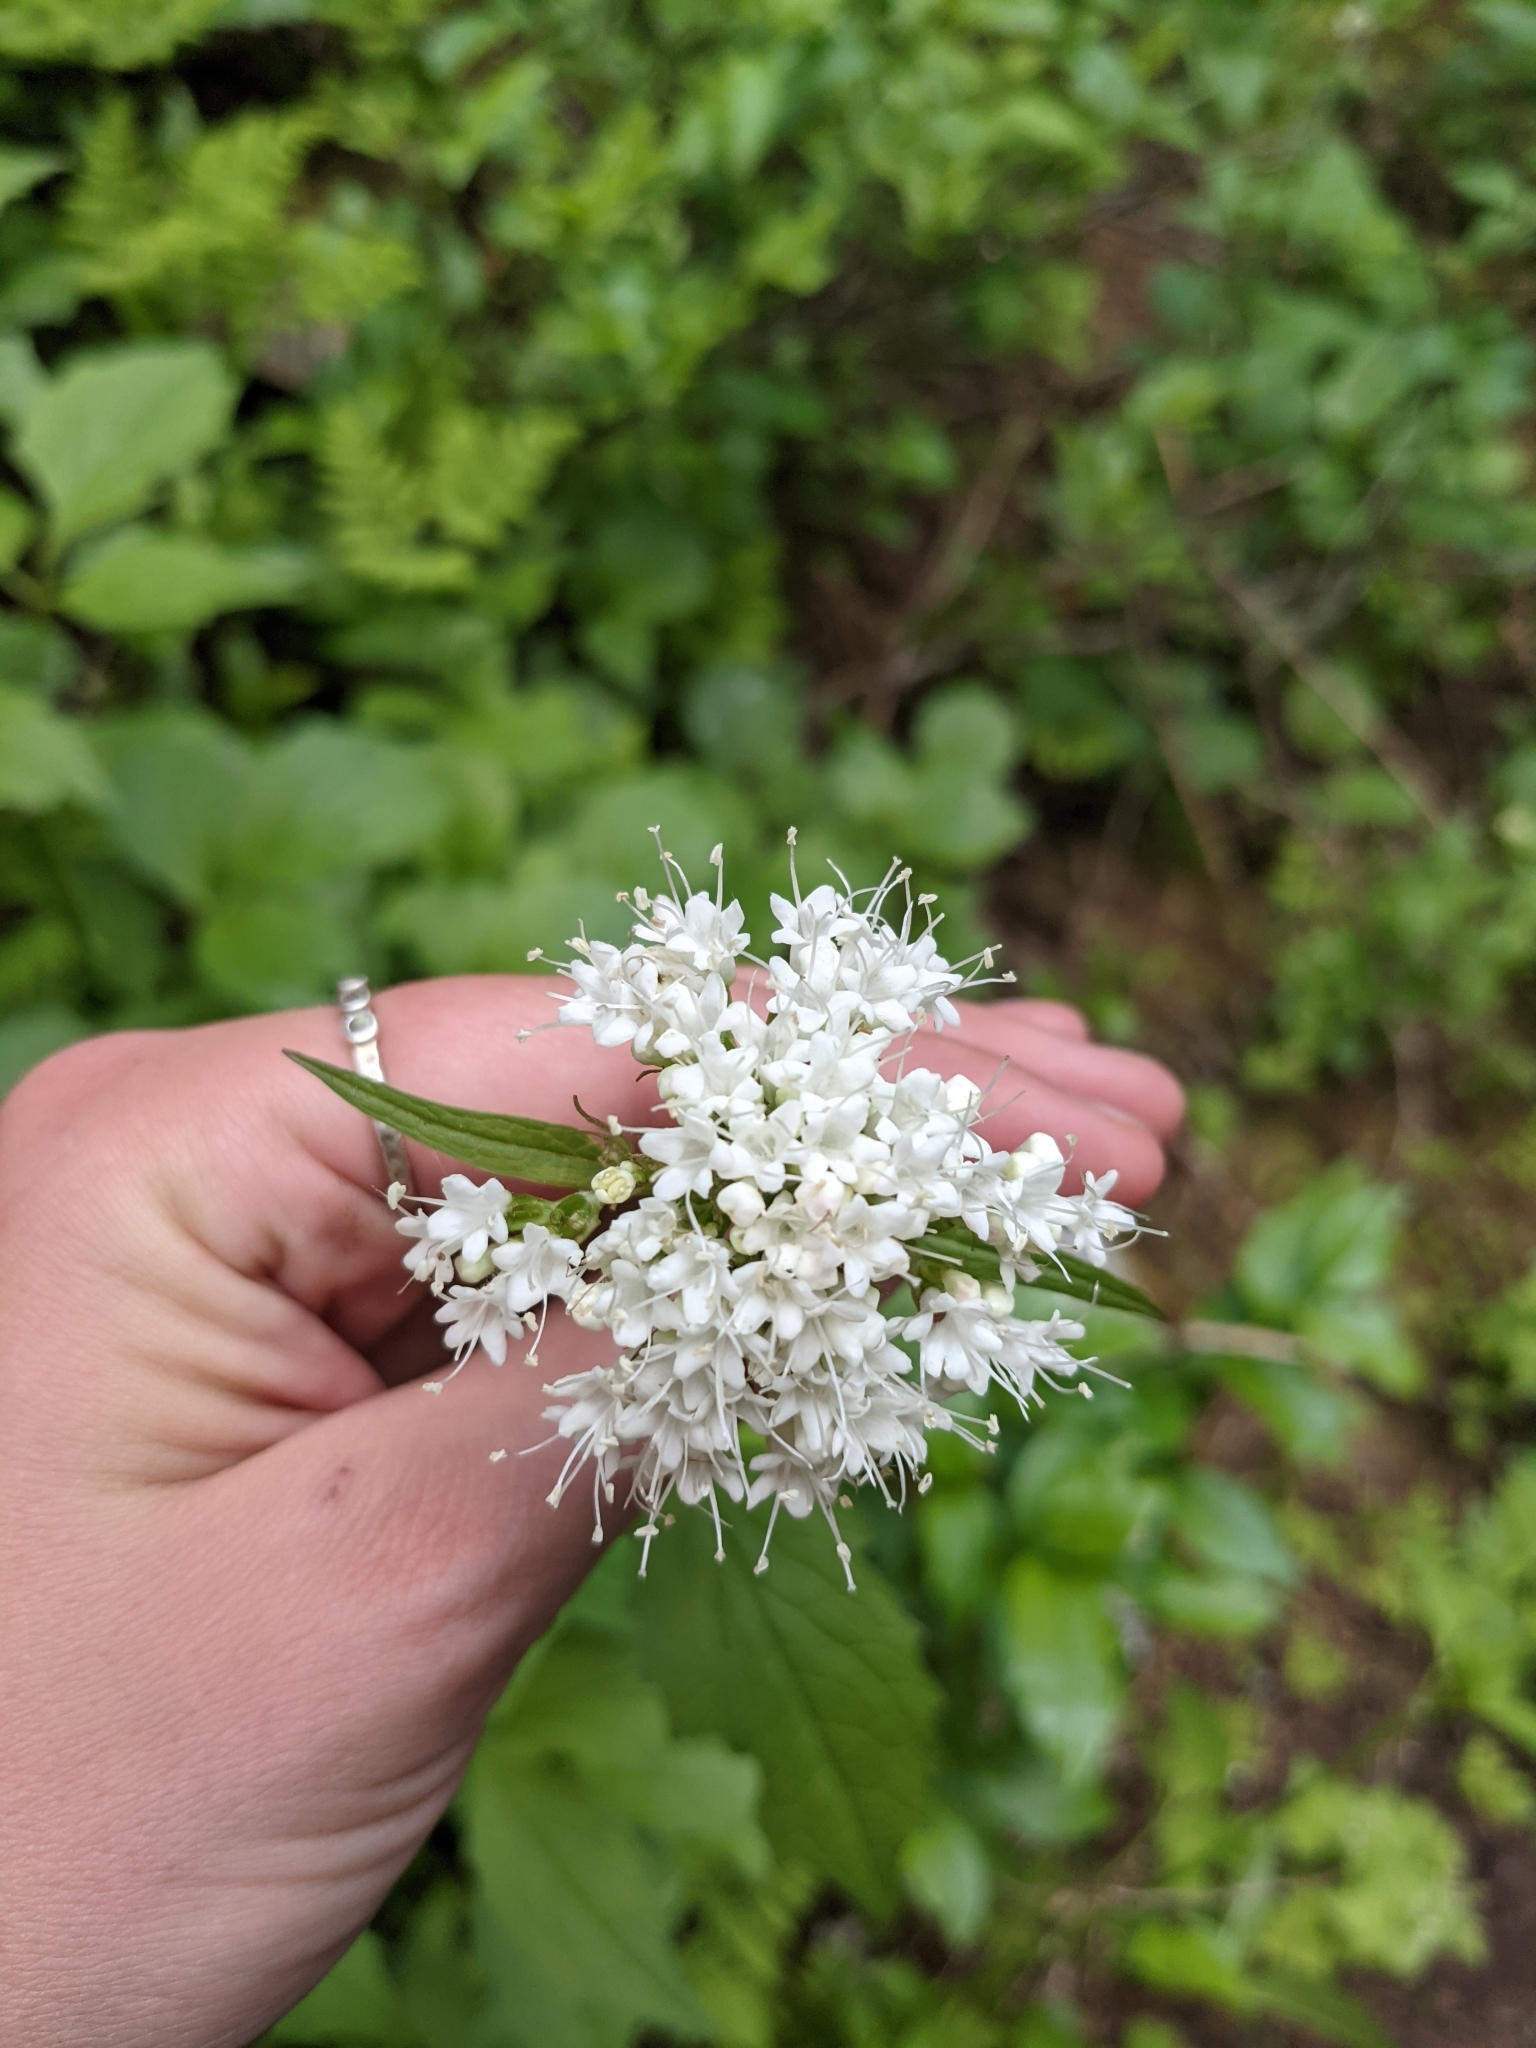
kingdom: Plantae
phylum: Tracheophyta
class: Magnoliopsida
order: Dipsacales
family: Caprifoliaceae
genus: Valeriana
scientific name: Valeriana sitchensis
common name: Pacific valerian
